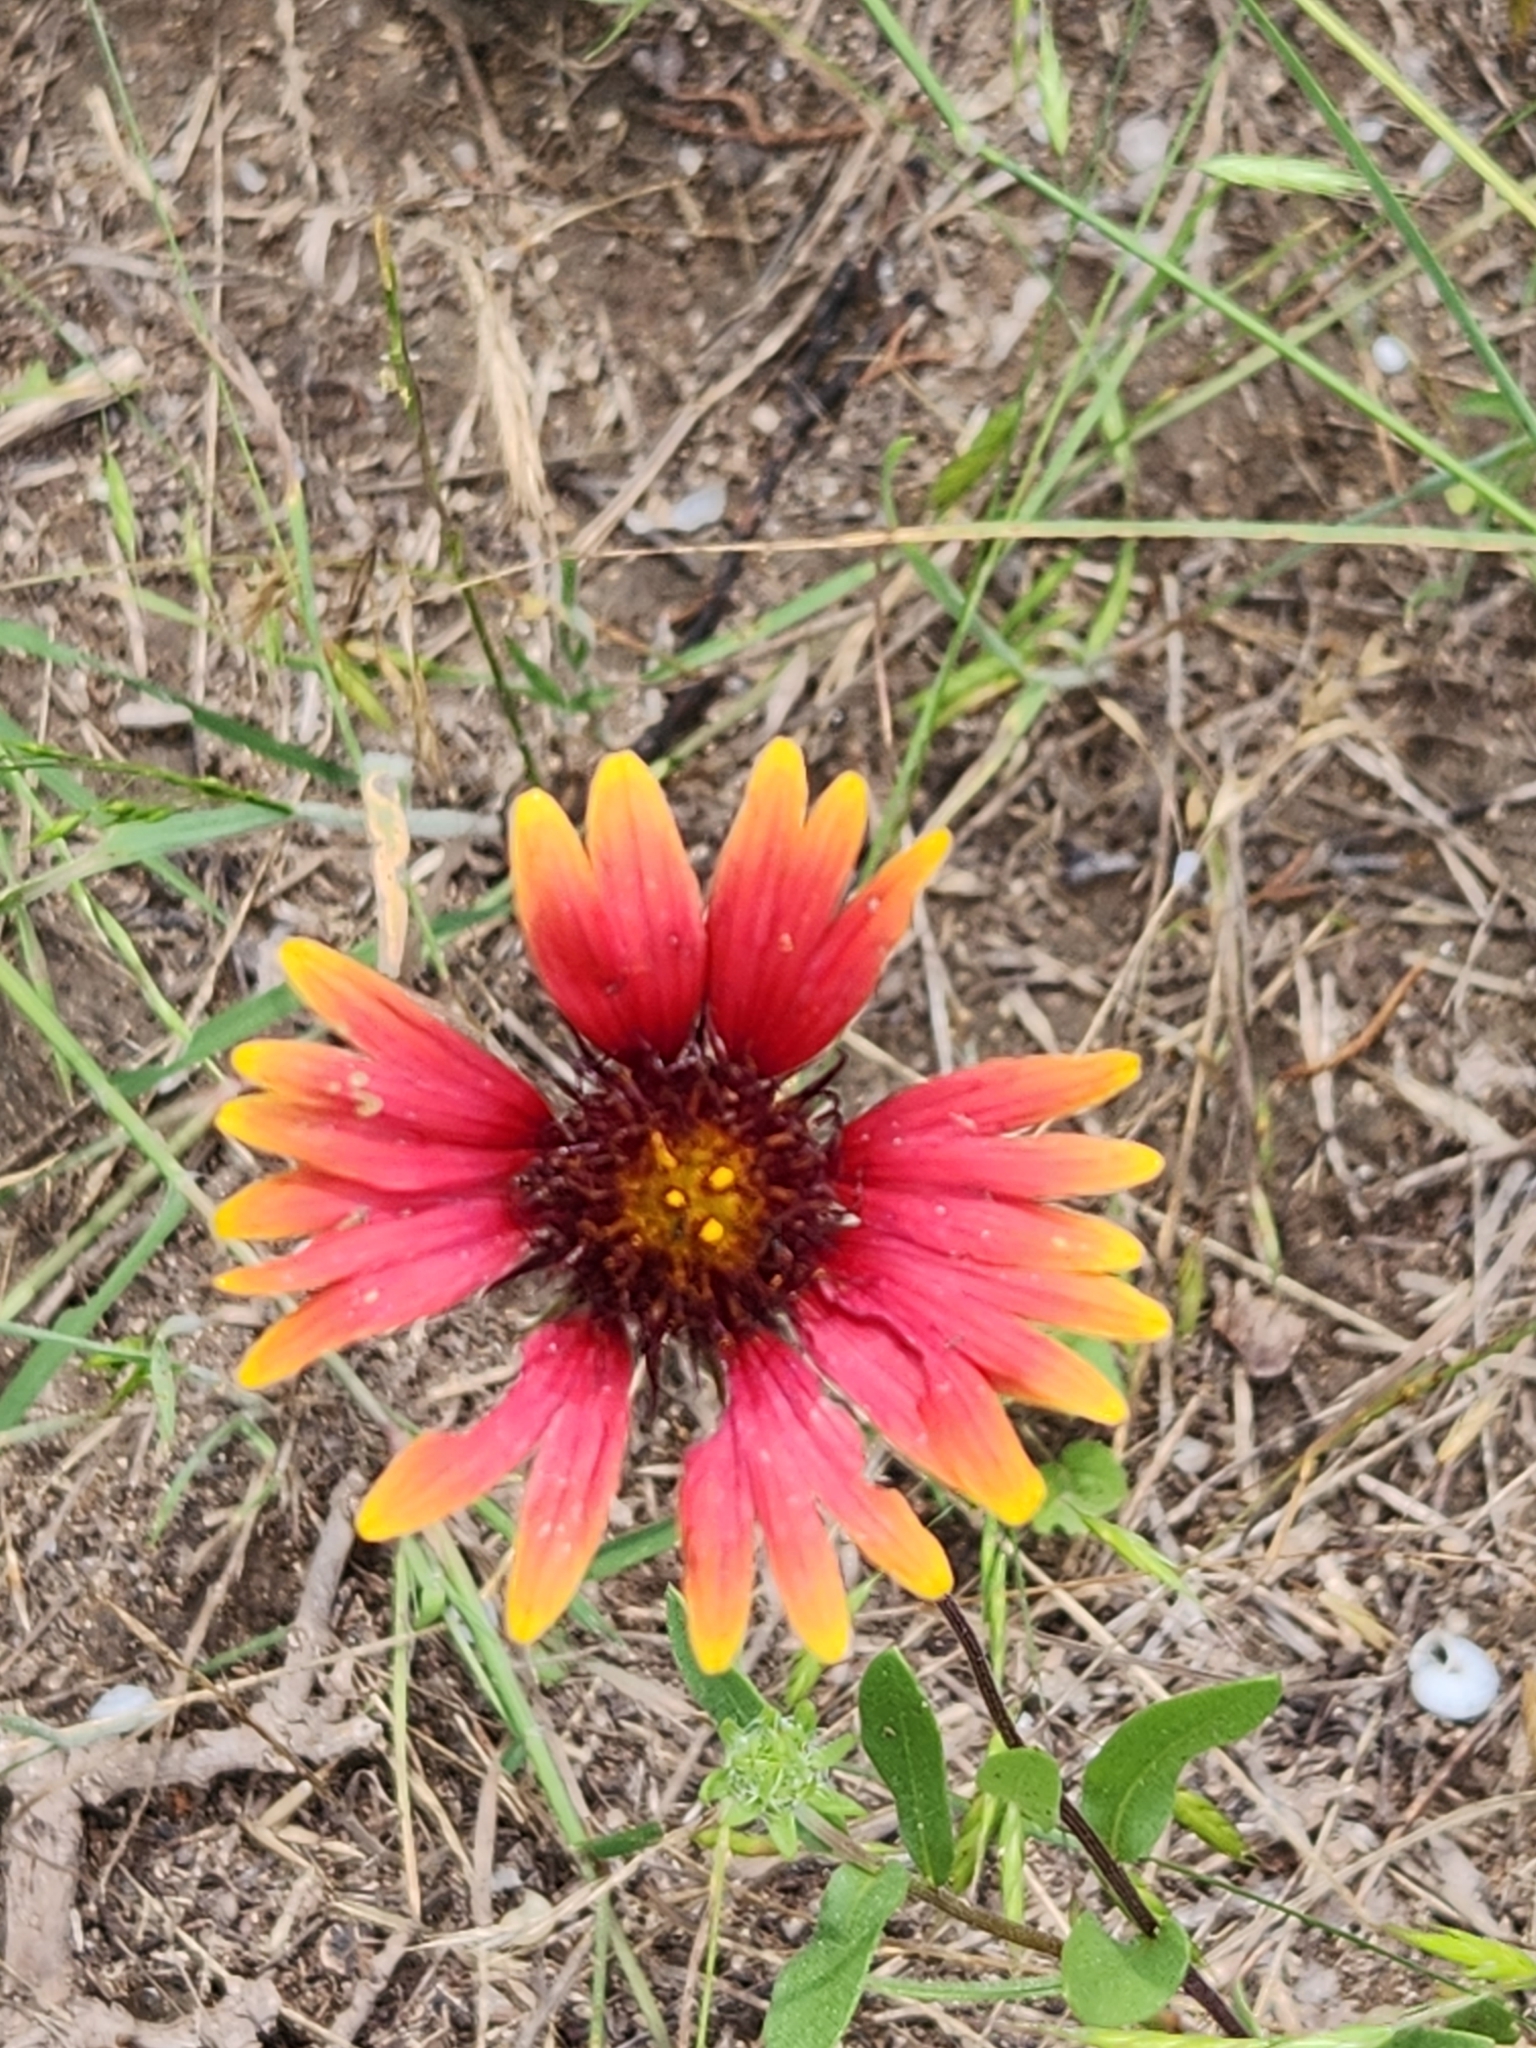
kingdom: Plantae
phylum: Tracheophyta
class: Magnoliopsida
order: Asterales
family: Asteraceae
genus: Gaillardia
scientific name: Gaillardia pulchella
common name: Firewheel
